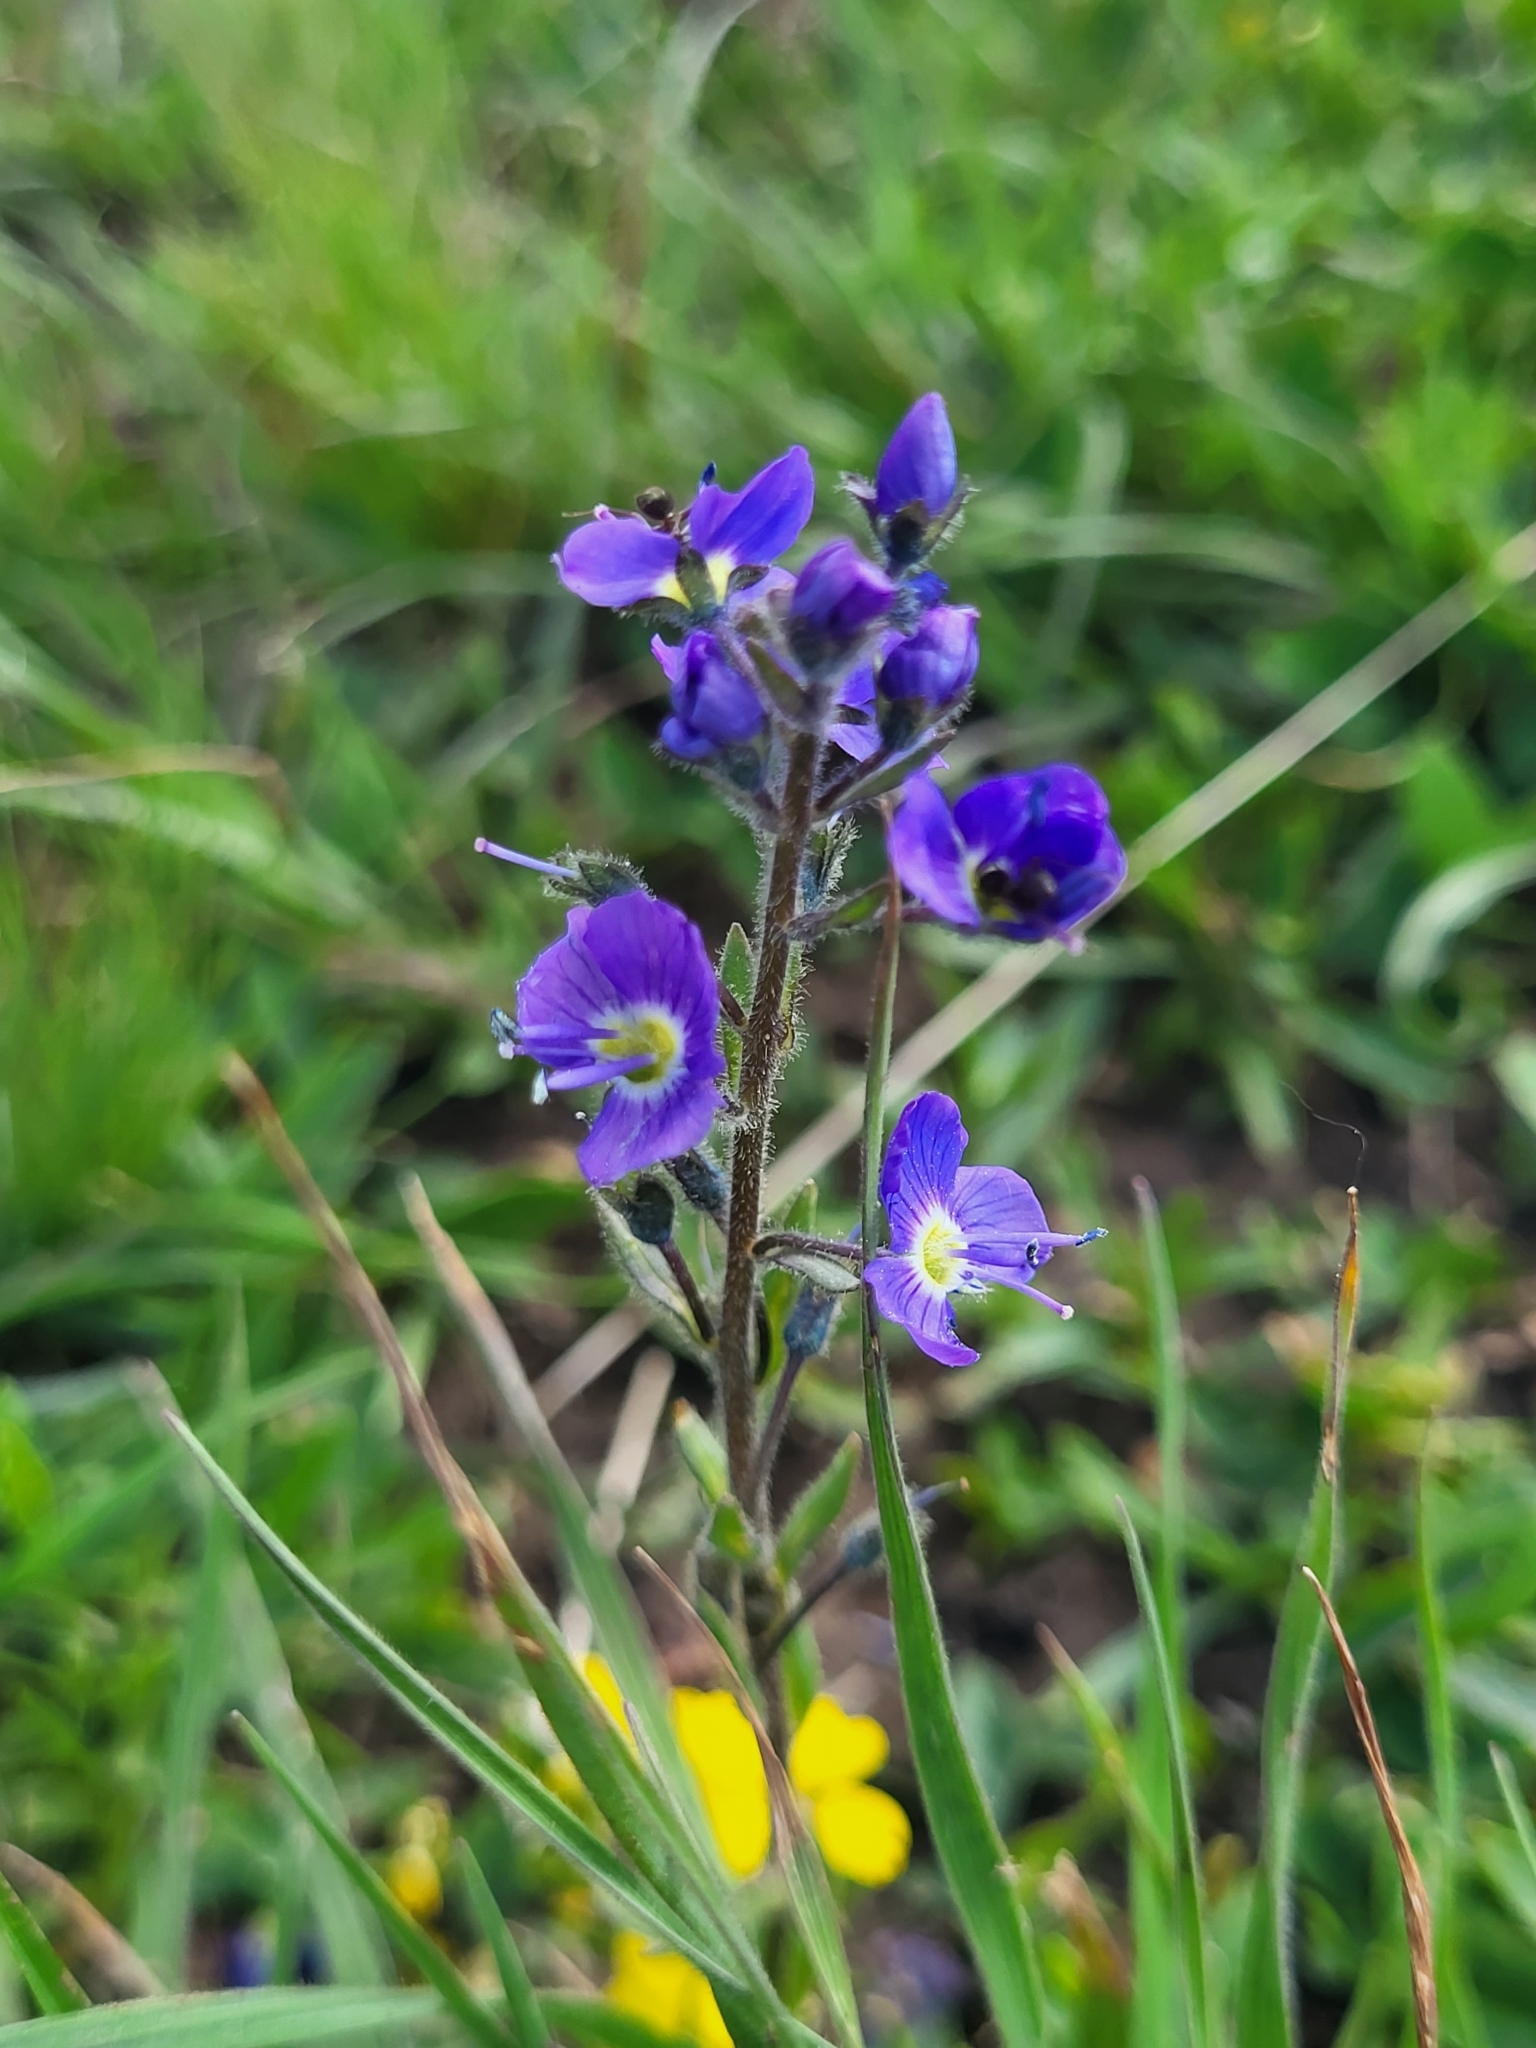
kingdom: Plantae
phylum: Tracheophyta
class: Magnoliopsida
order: Lamiales
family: Plantaginaceae
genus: Veronica
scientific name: Veronica gentianoides
